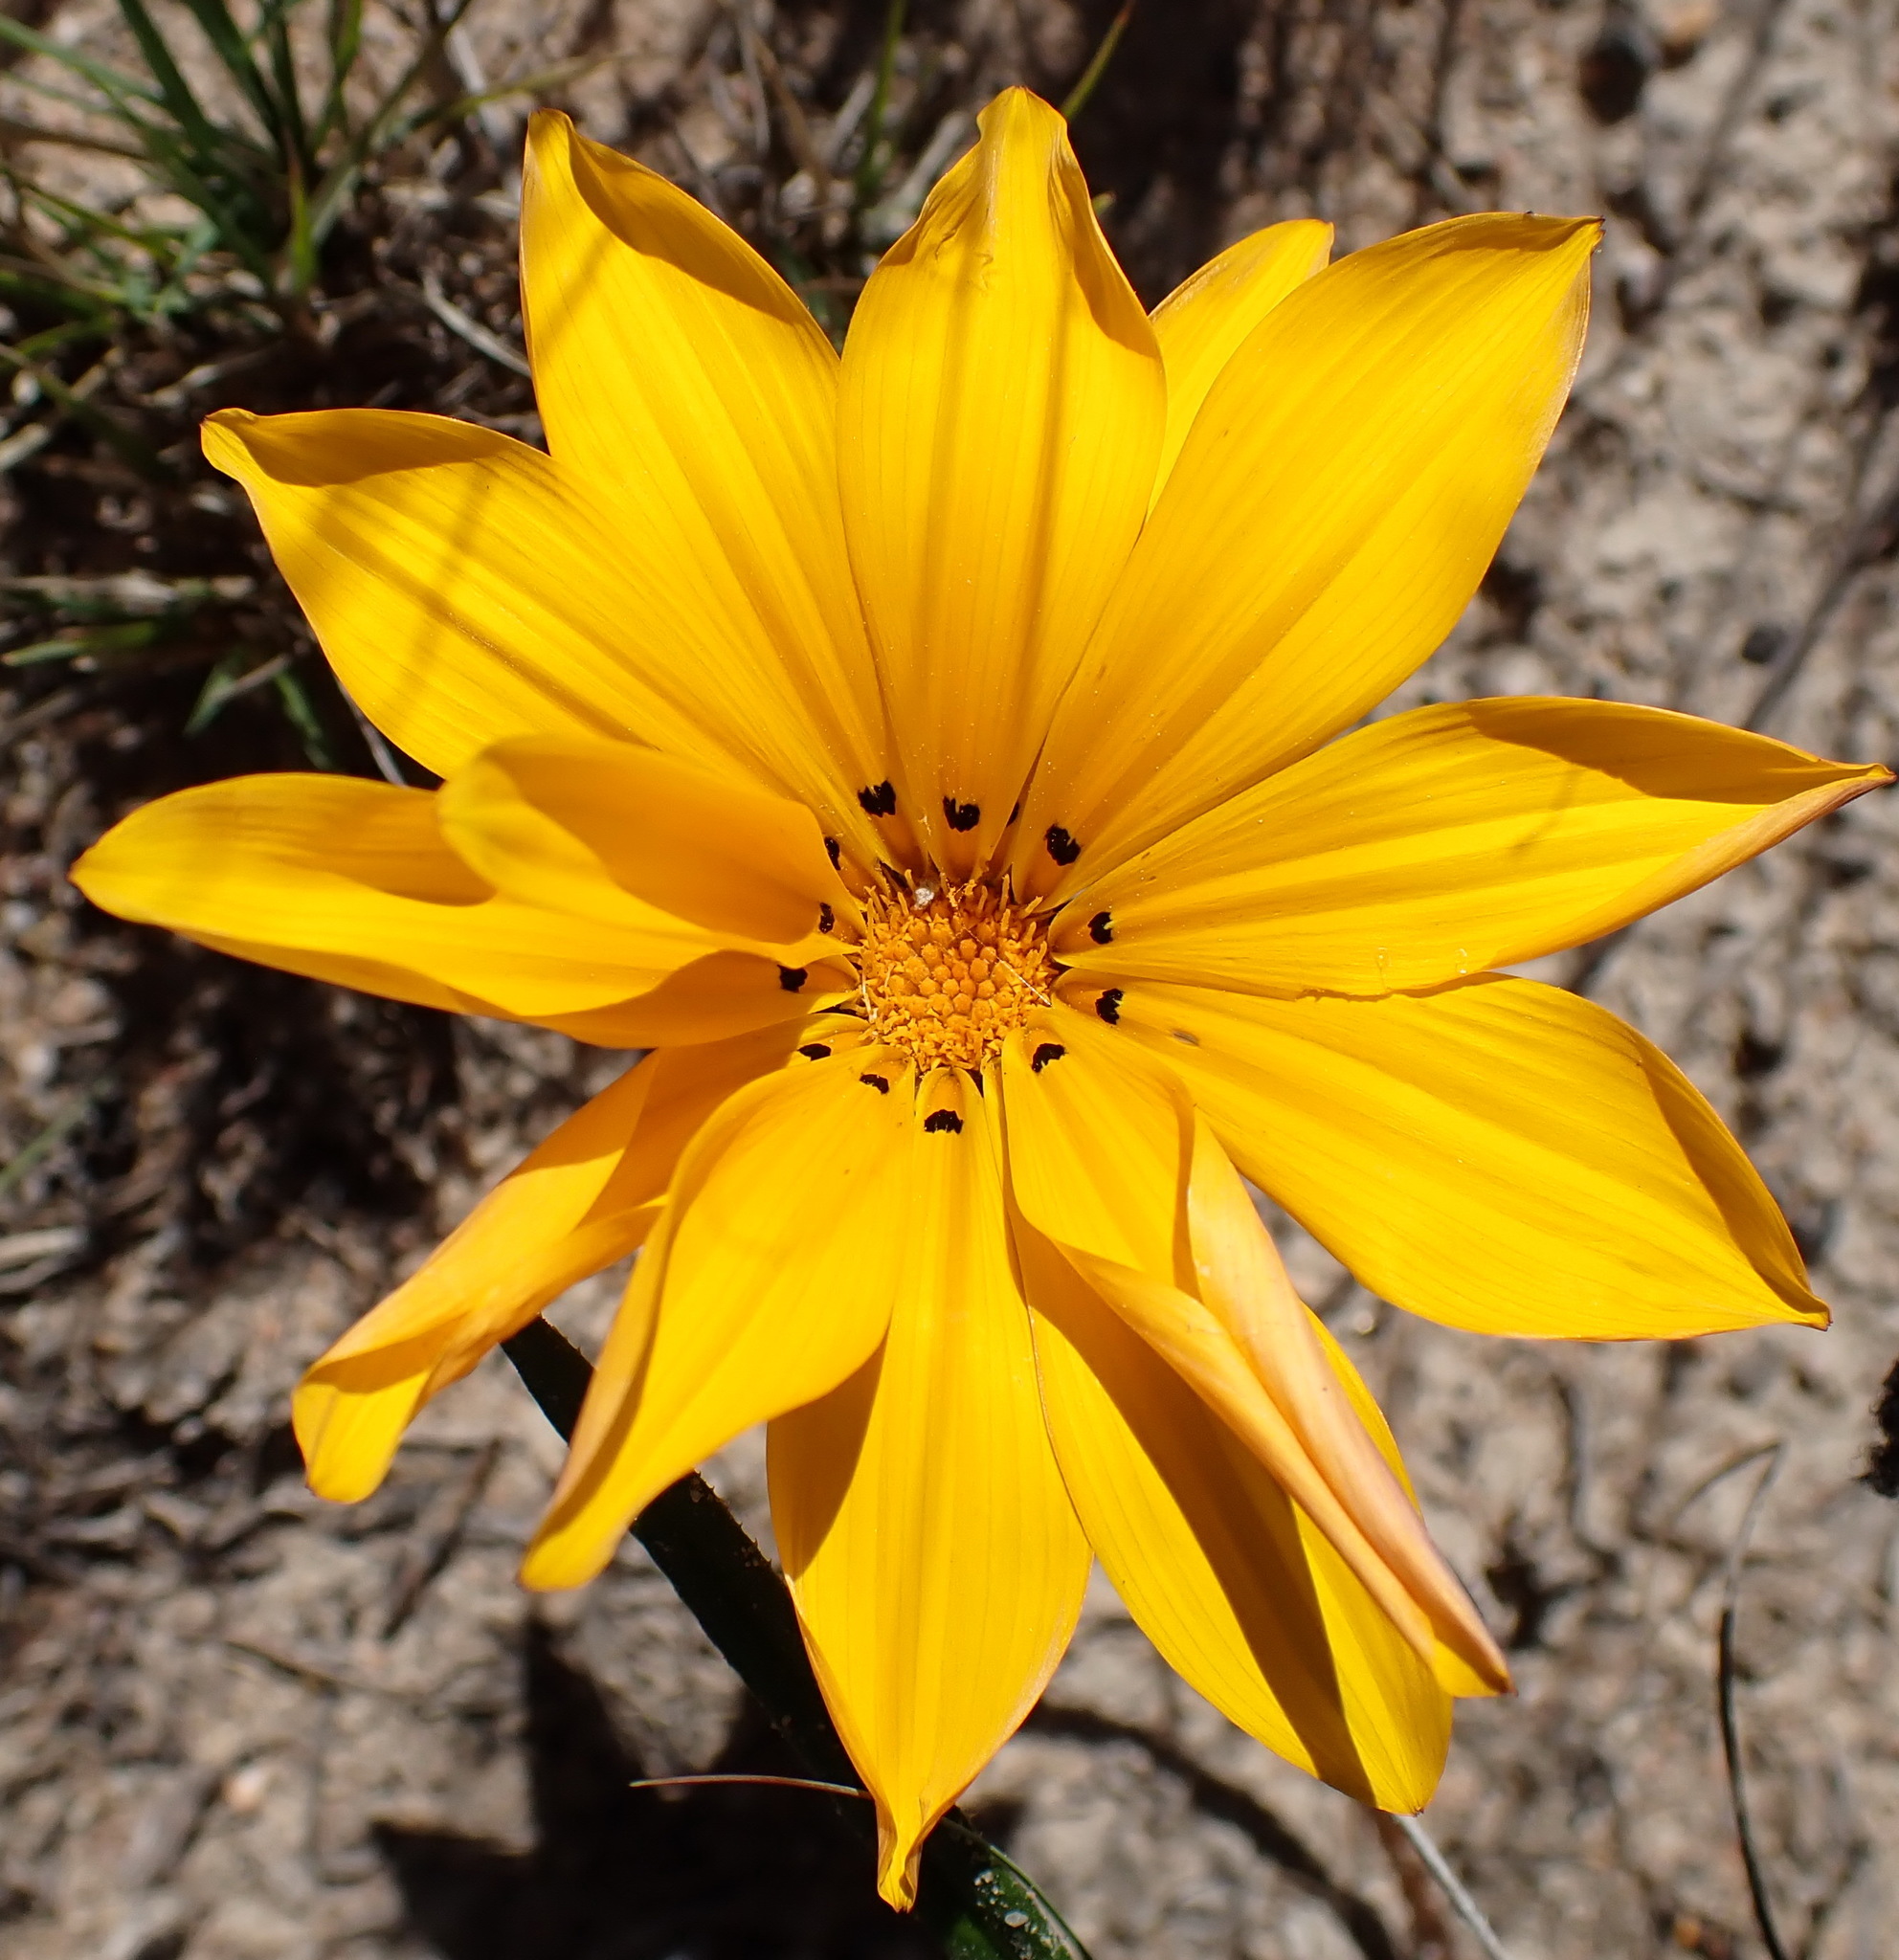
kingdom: Plantae
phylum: Tracheophyta
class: Magnoliopsida
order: Asterales
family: Asteraceae
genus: Gazania
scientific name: Gazania krebsiana
